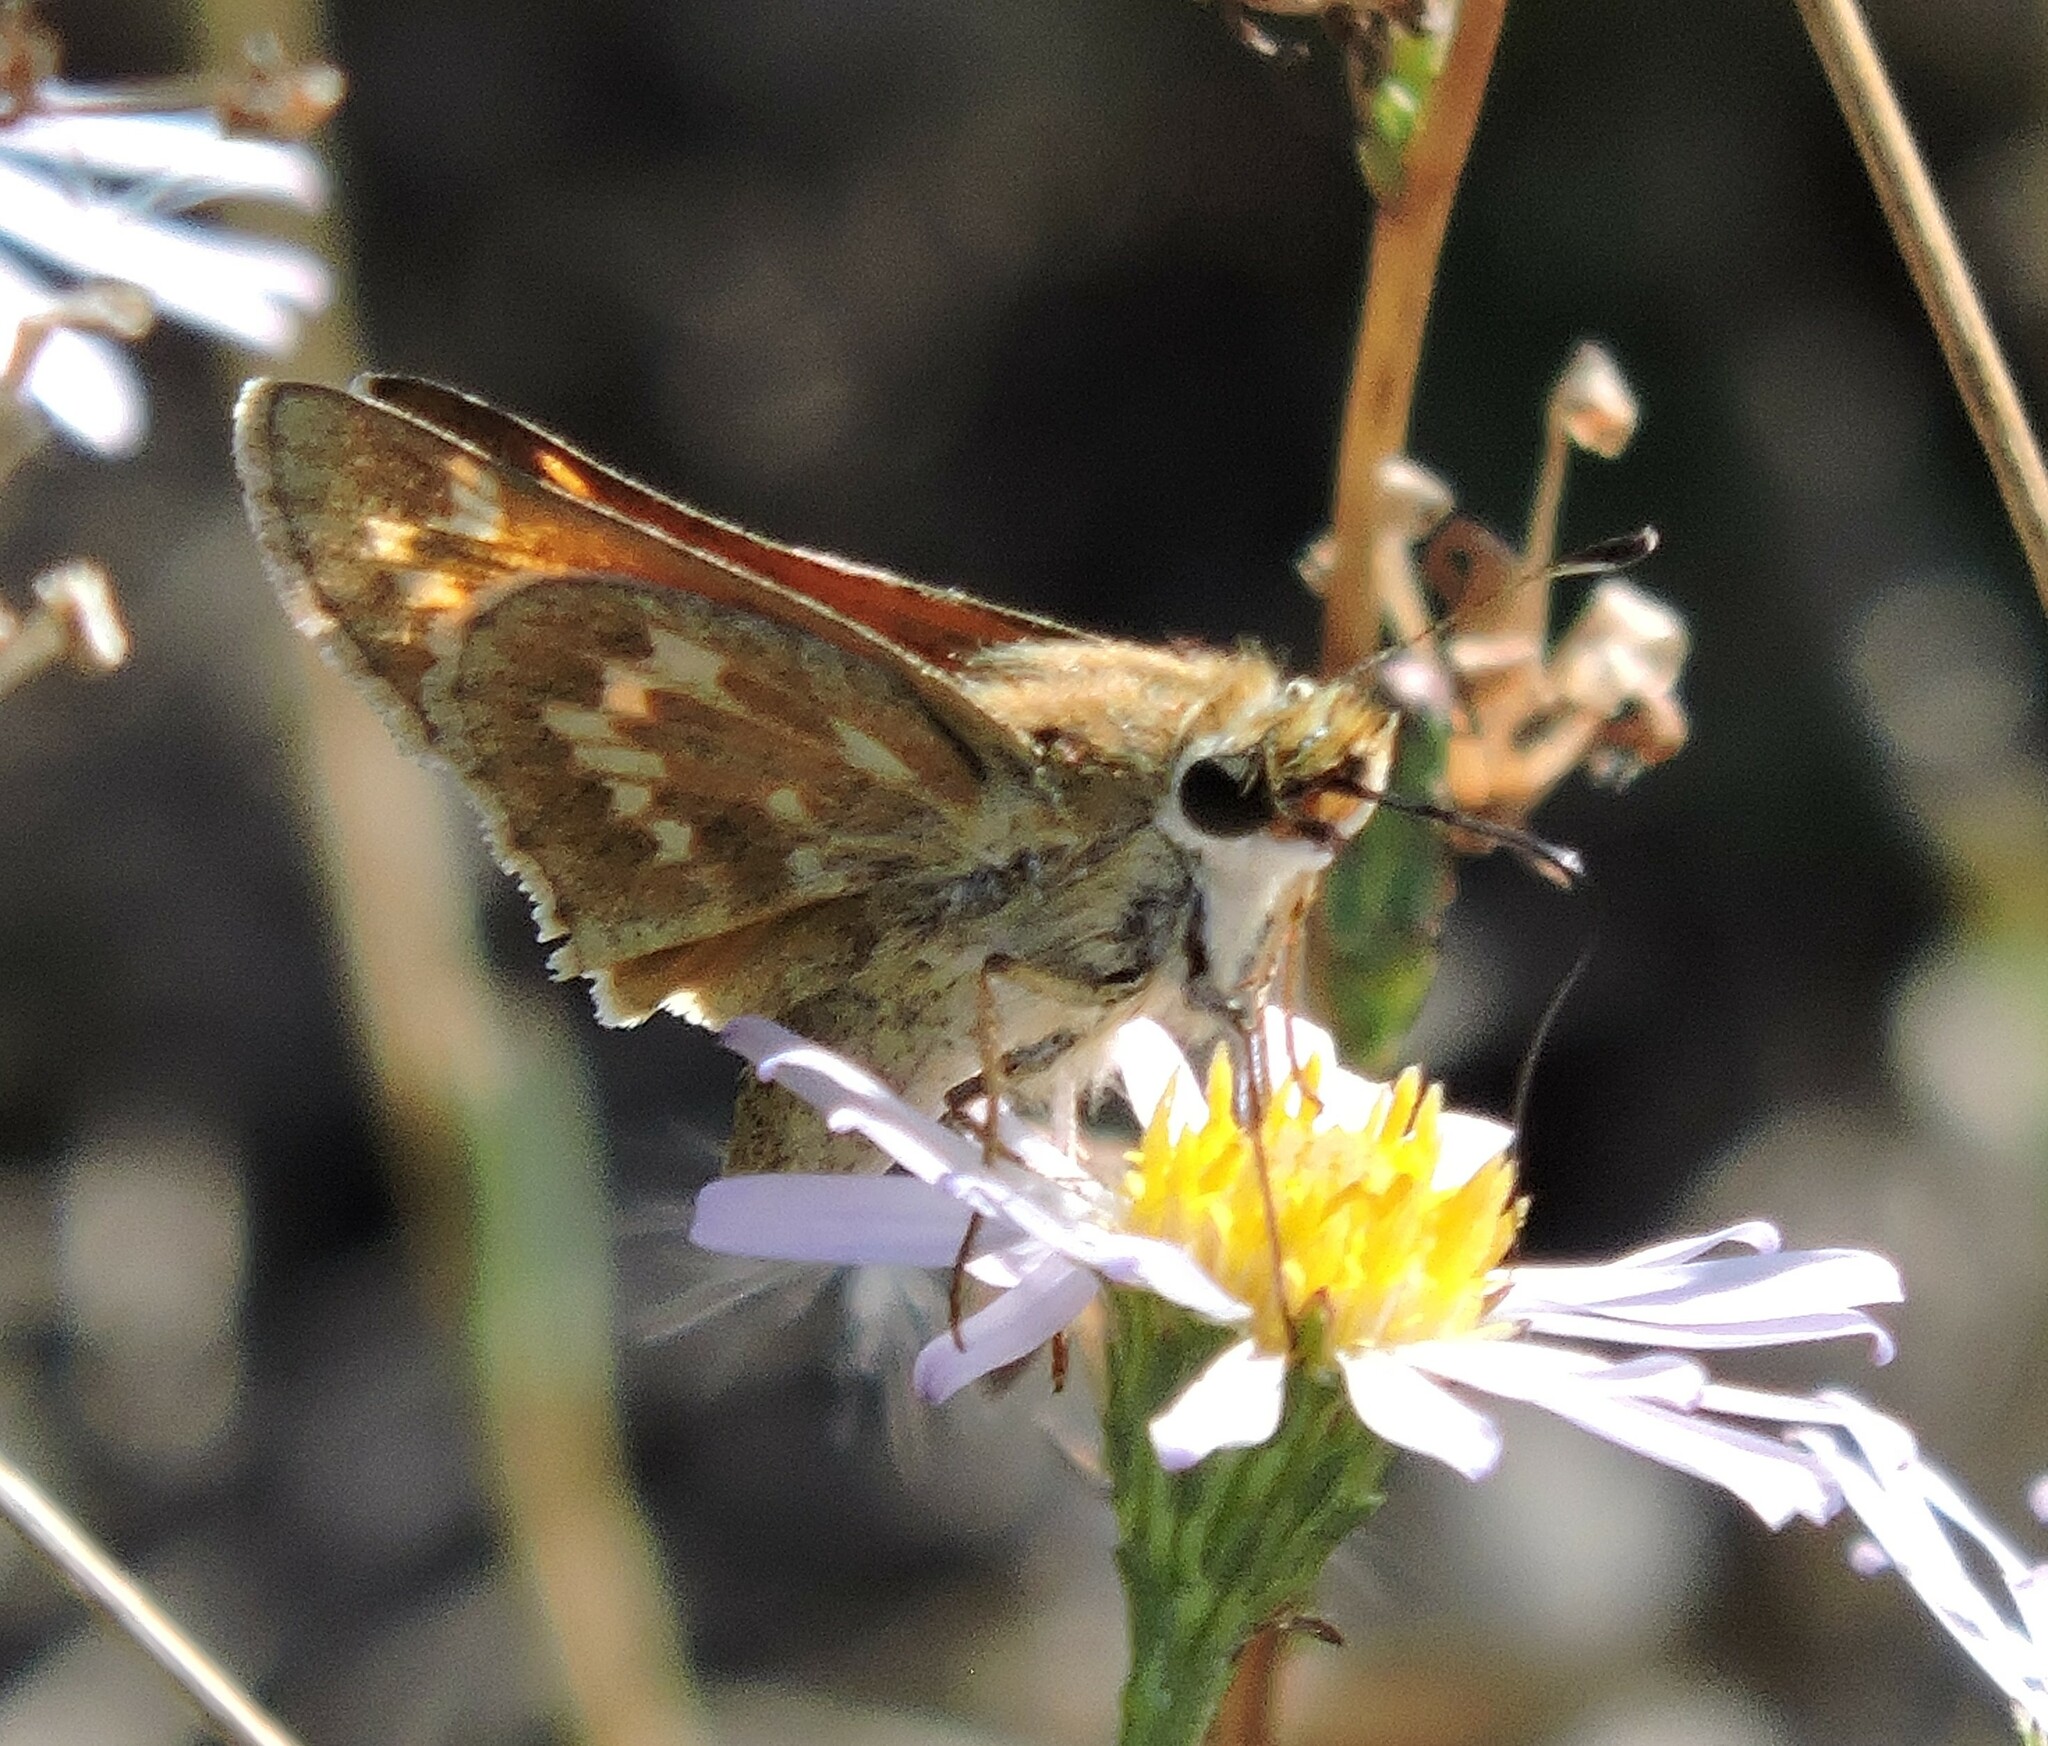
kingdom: Animalia
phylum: Arthropoda
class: Insecta
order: Lepidoptera
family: Hesperiidae
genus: Atalopedes
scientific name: Atalopedes campestris
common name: Sachem
